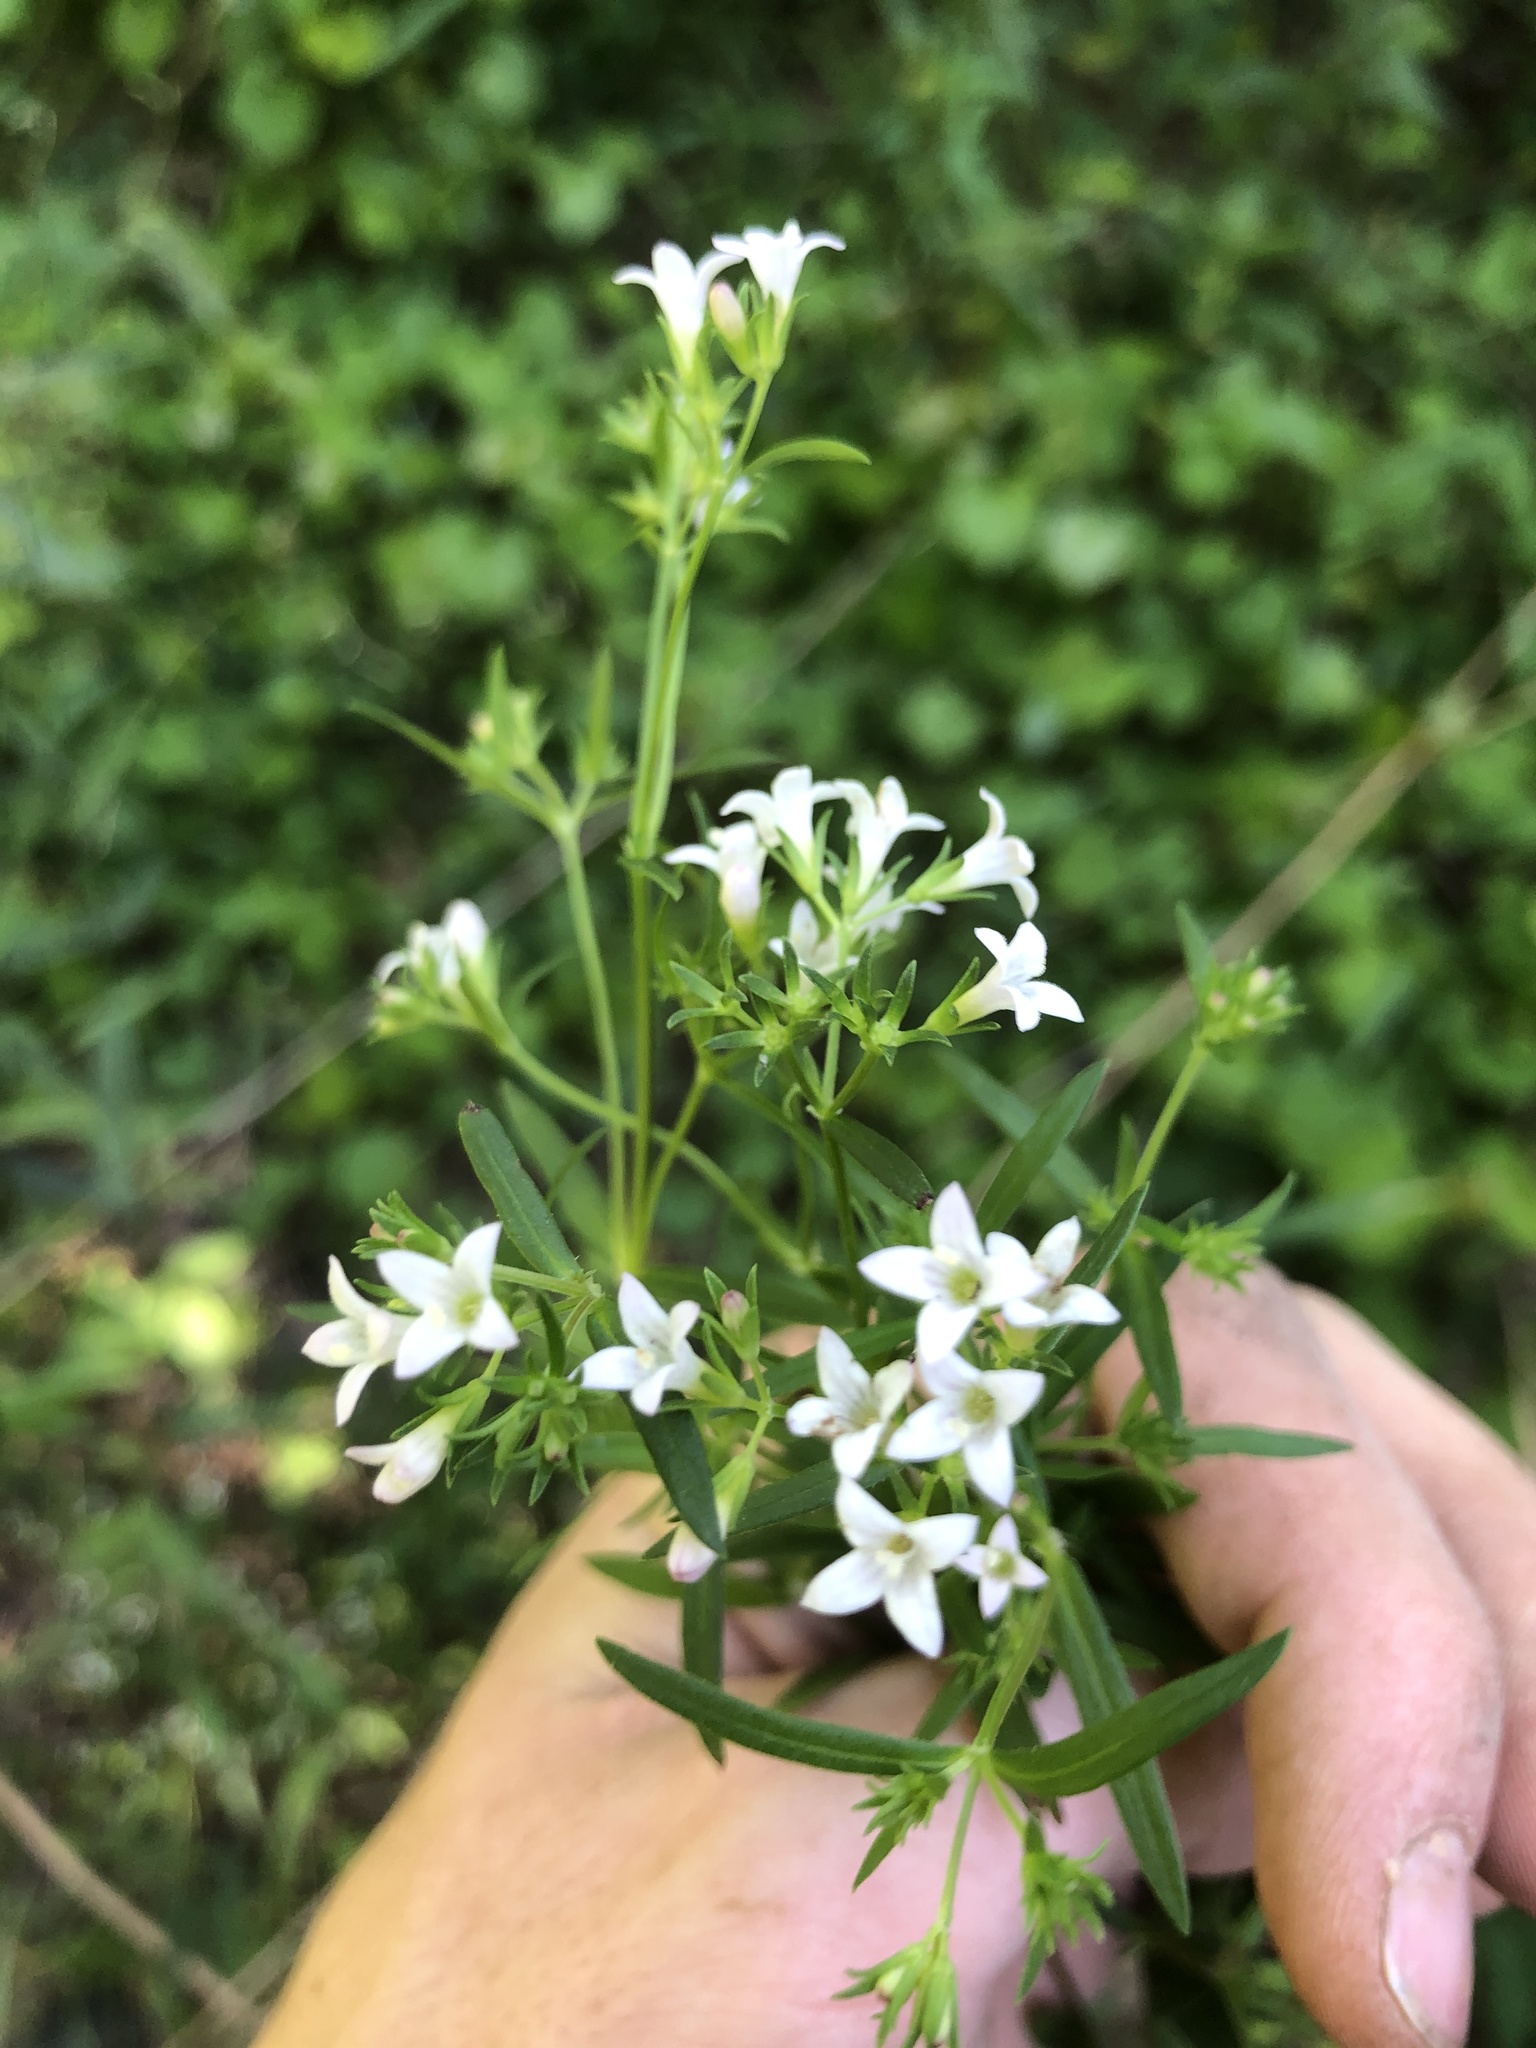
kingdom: Plantae
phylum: Tracheophyta
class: Magnoliopsida
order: Gentianales
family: Rubiaceae
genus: Houstonia
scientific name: Houstonia purpurea
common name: Summer bluet
